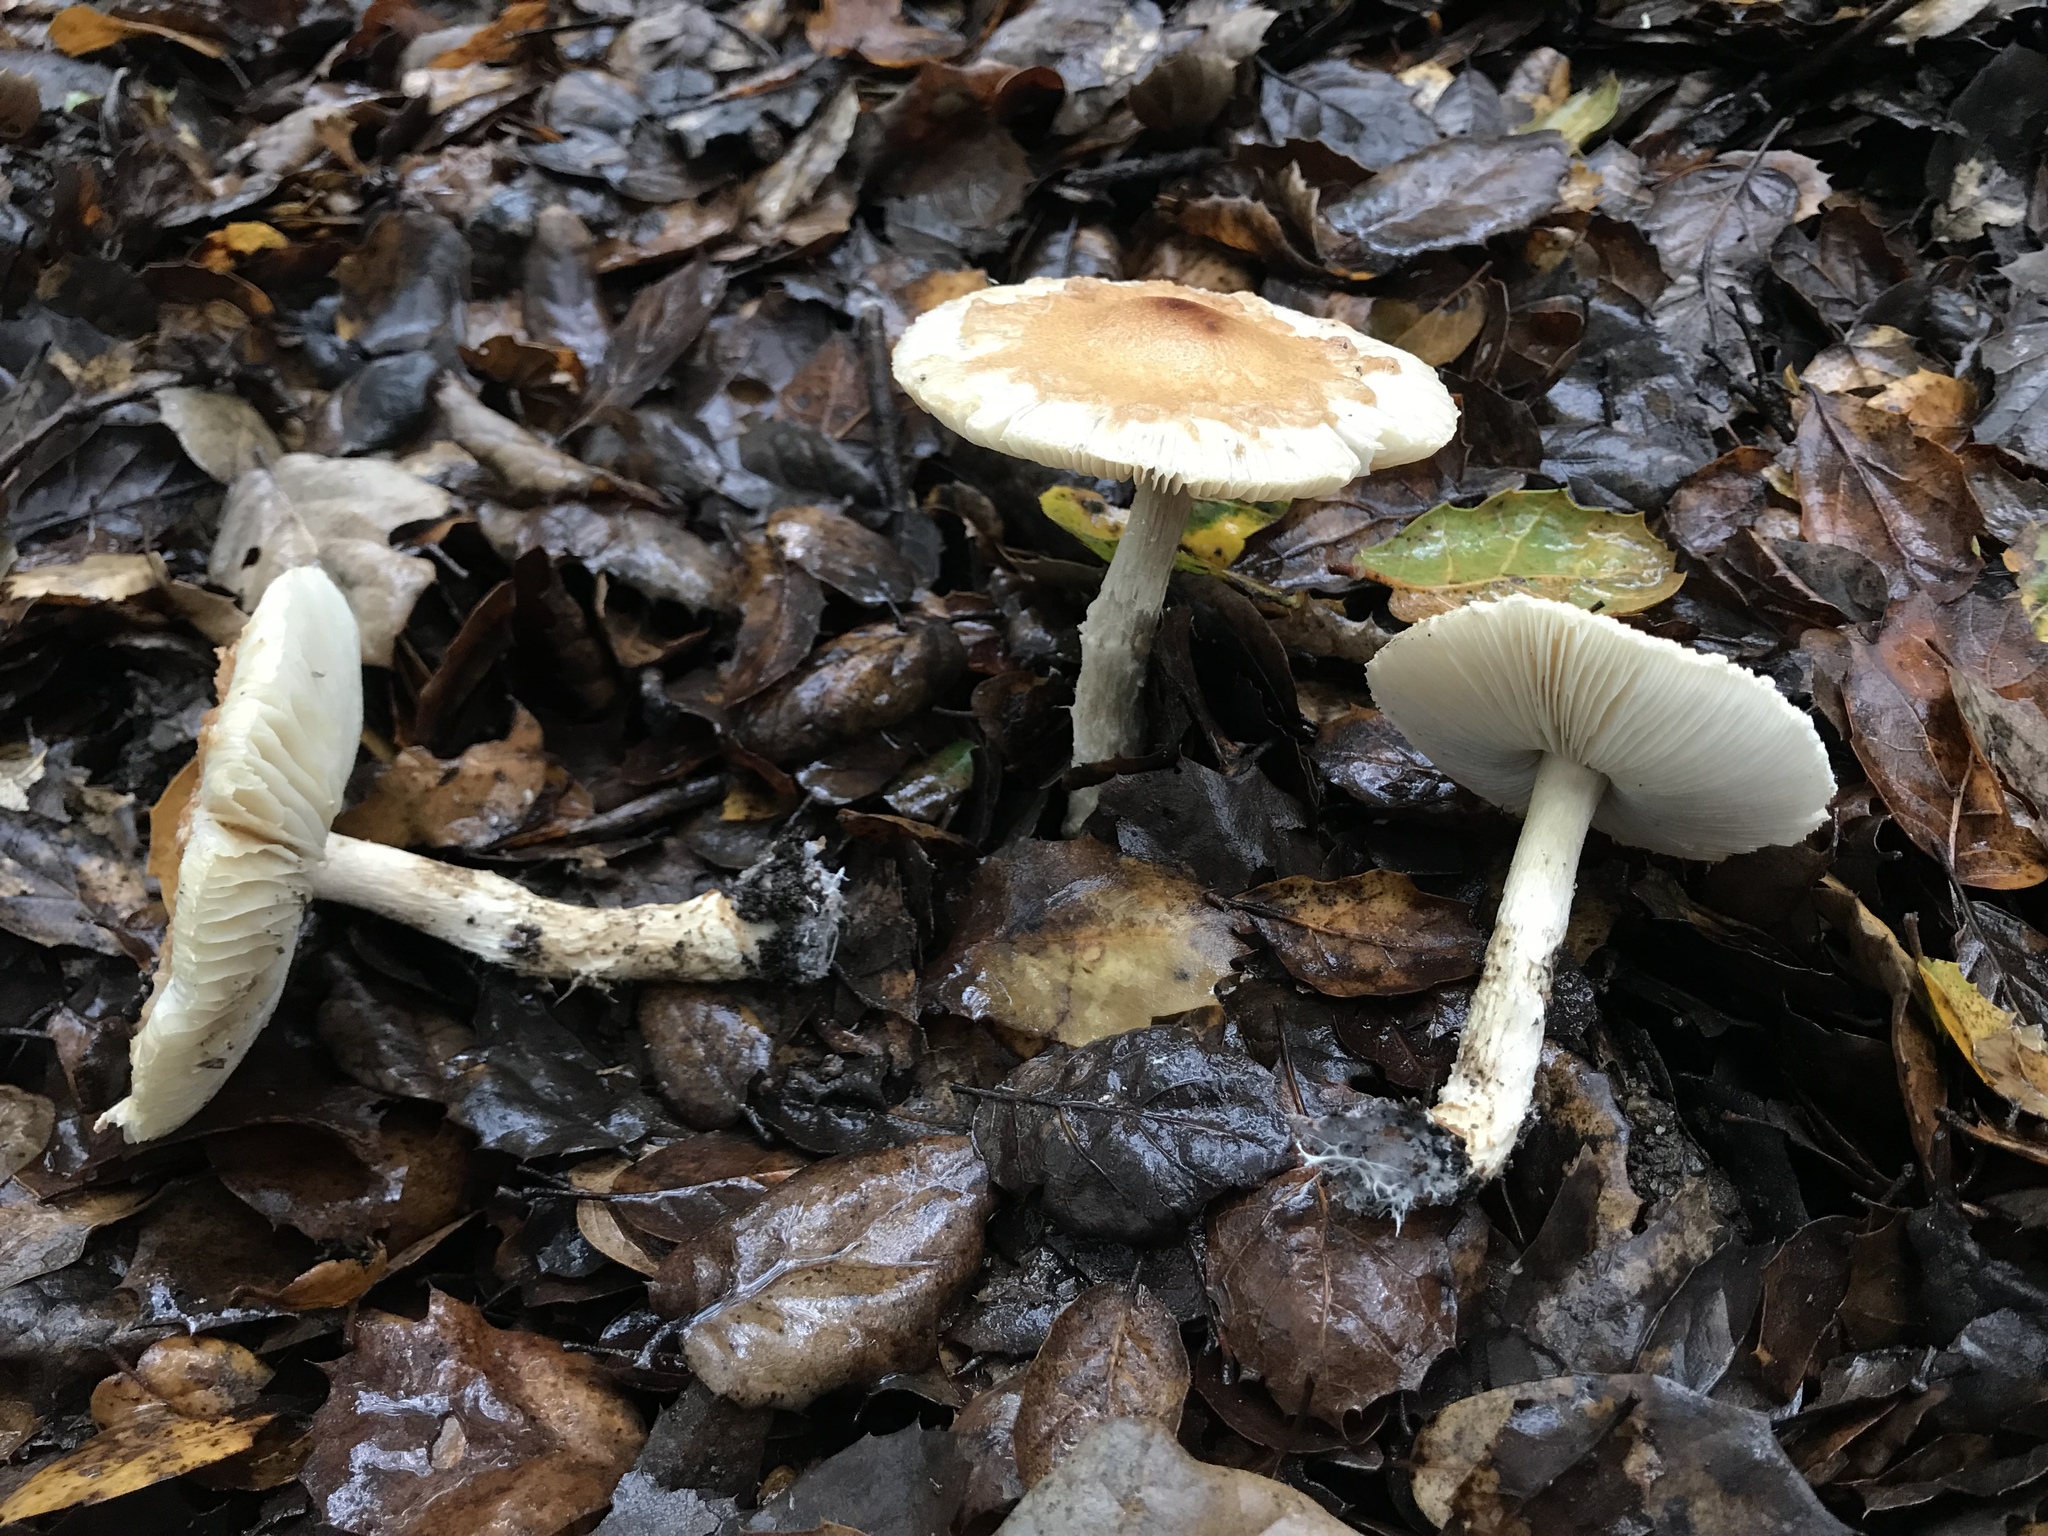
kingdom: Fungi
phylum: Basidiomycota
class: Agaricomycetes
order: Agaricales
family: Agaricaceae
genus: Lepiota
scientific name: Lepiota spheniscispora
